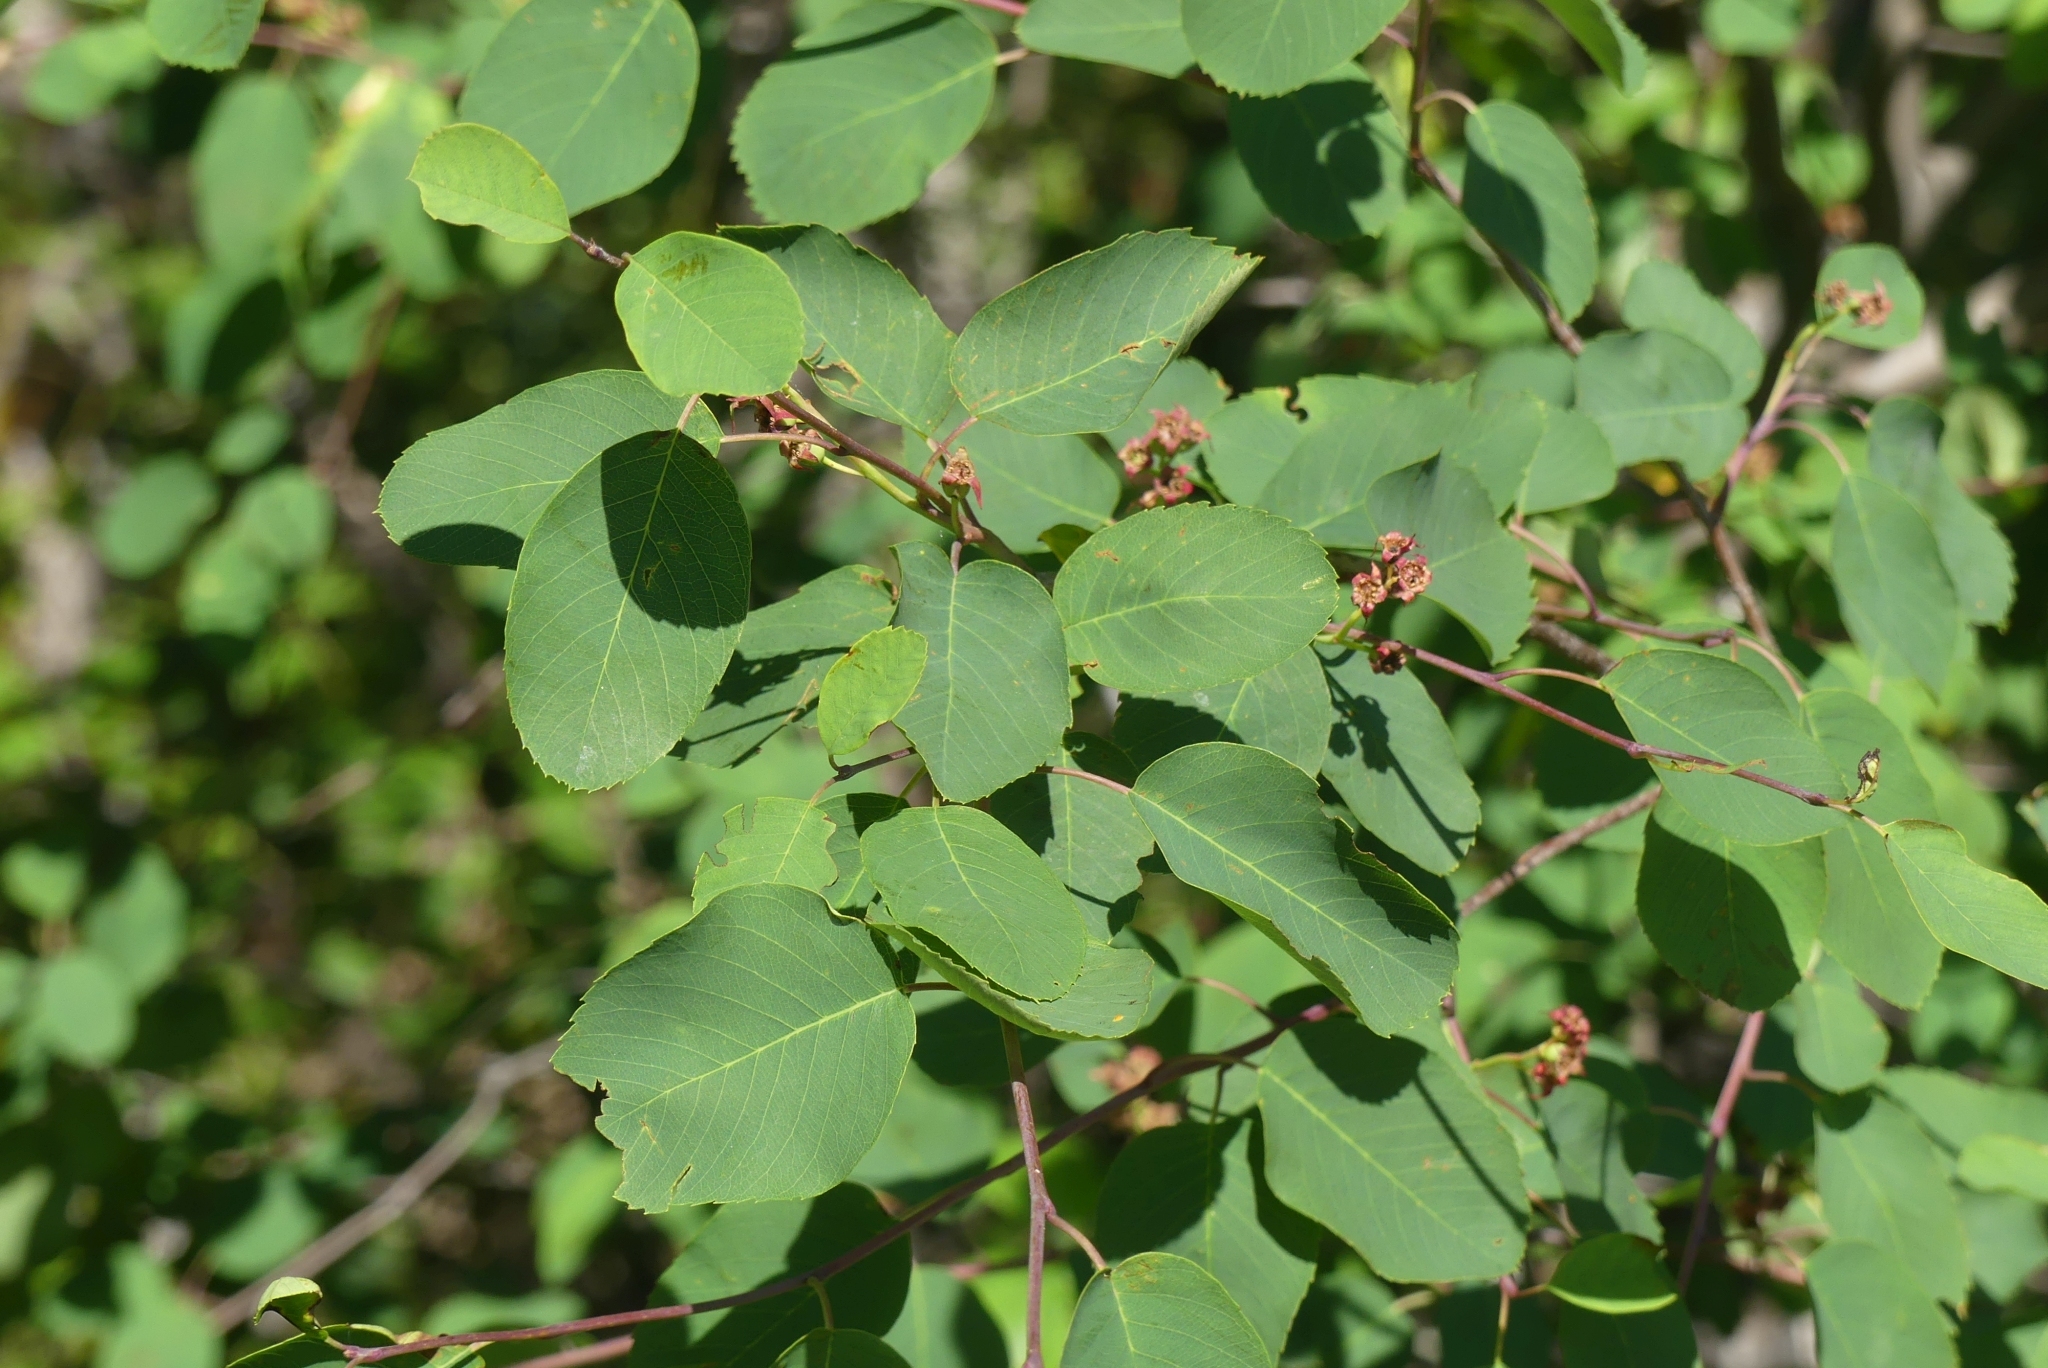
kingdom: Plantae
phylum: Tracheophyta
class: Magnoliopsida
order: Rosales
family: Rosaceae
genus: Amelanchier
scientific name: Amelanchier alnifolia
